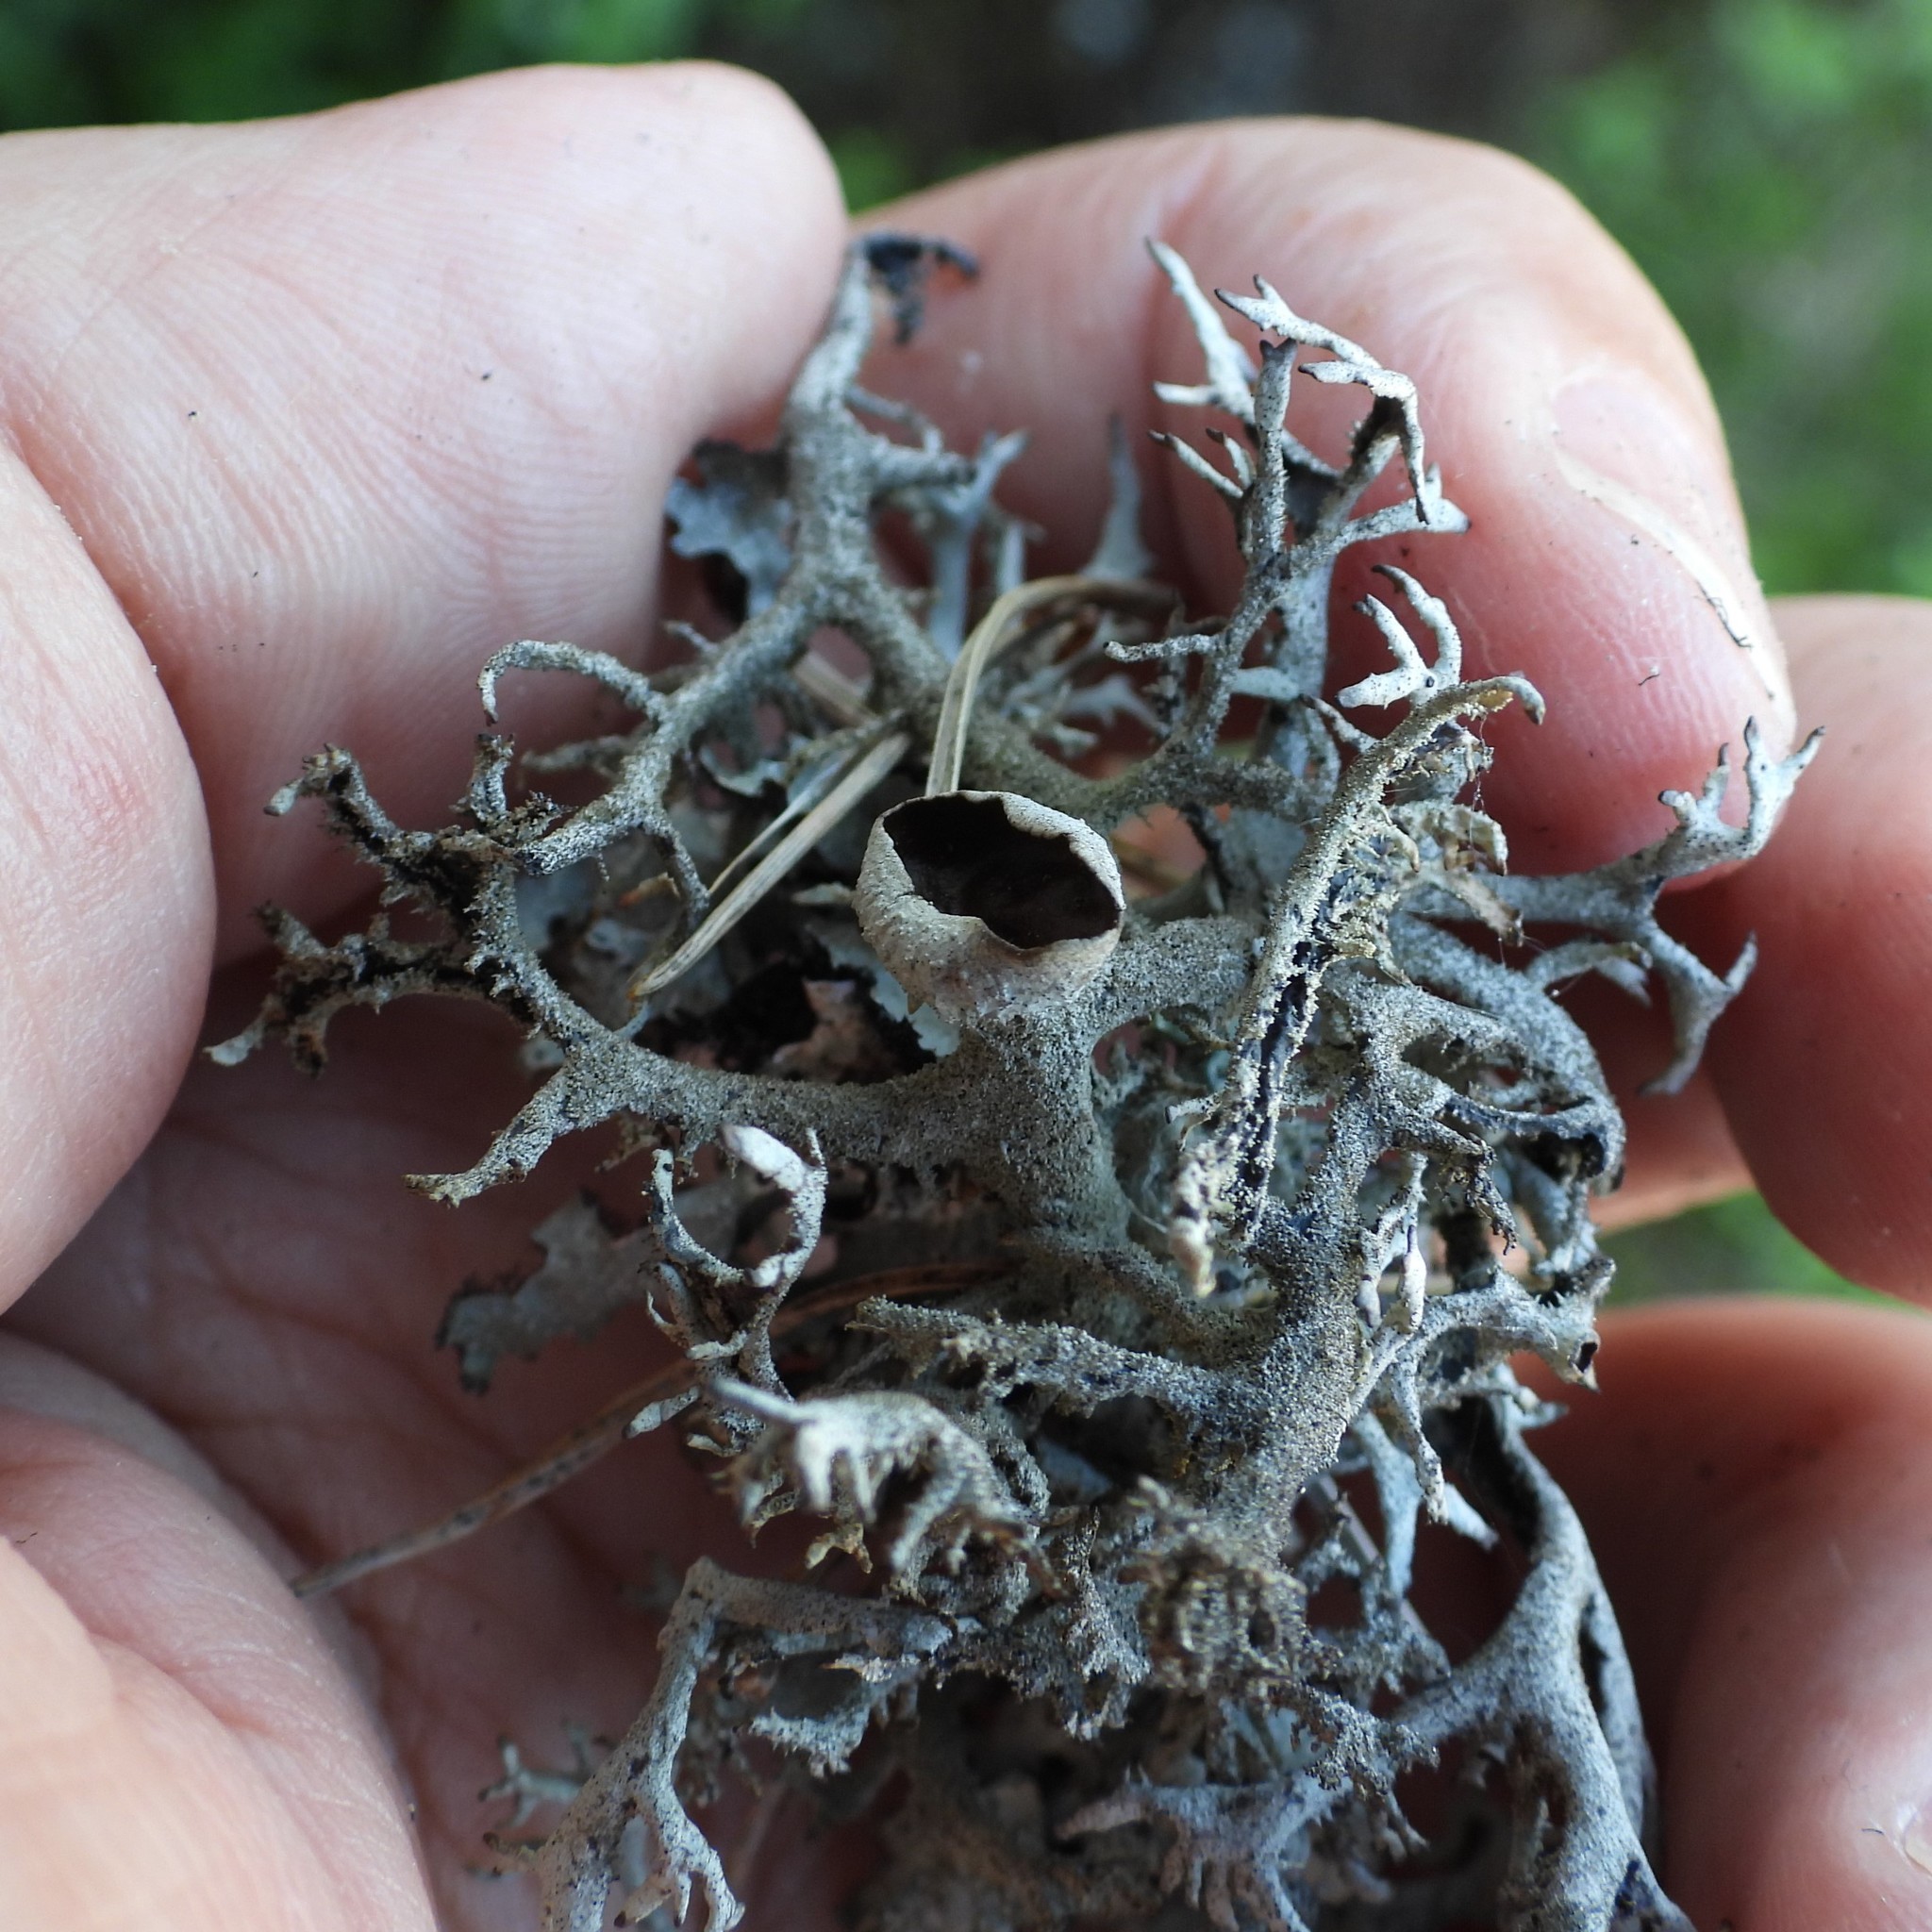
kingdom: Fungi
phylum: Ascomycota
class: Lecanoromycetes
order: Lecanorales
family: Parmeliaceae
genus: Pseudevernia
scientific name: Pseudevernia furfuracea
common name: Tree moss
